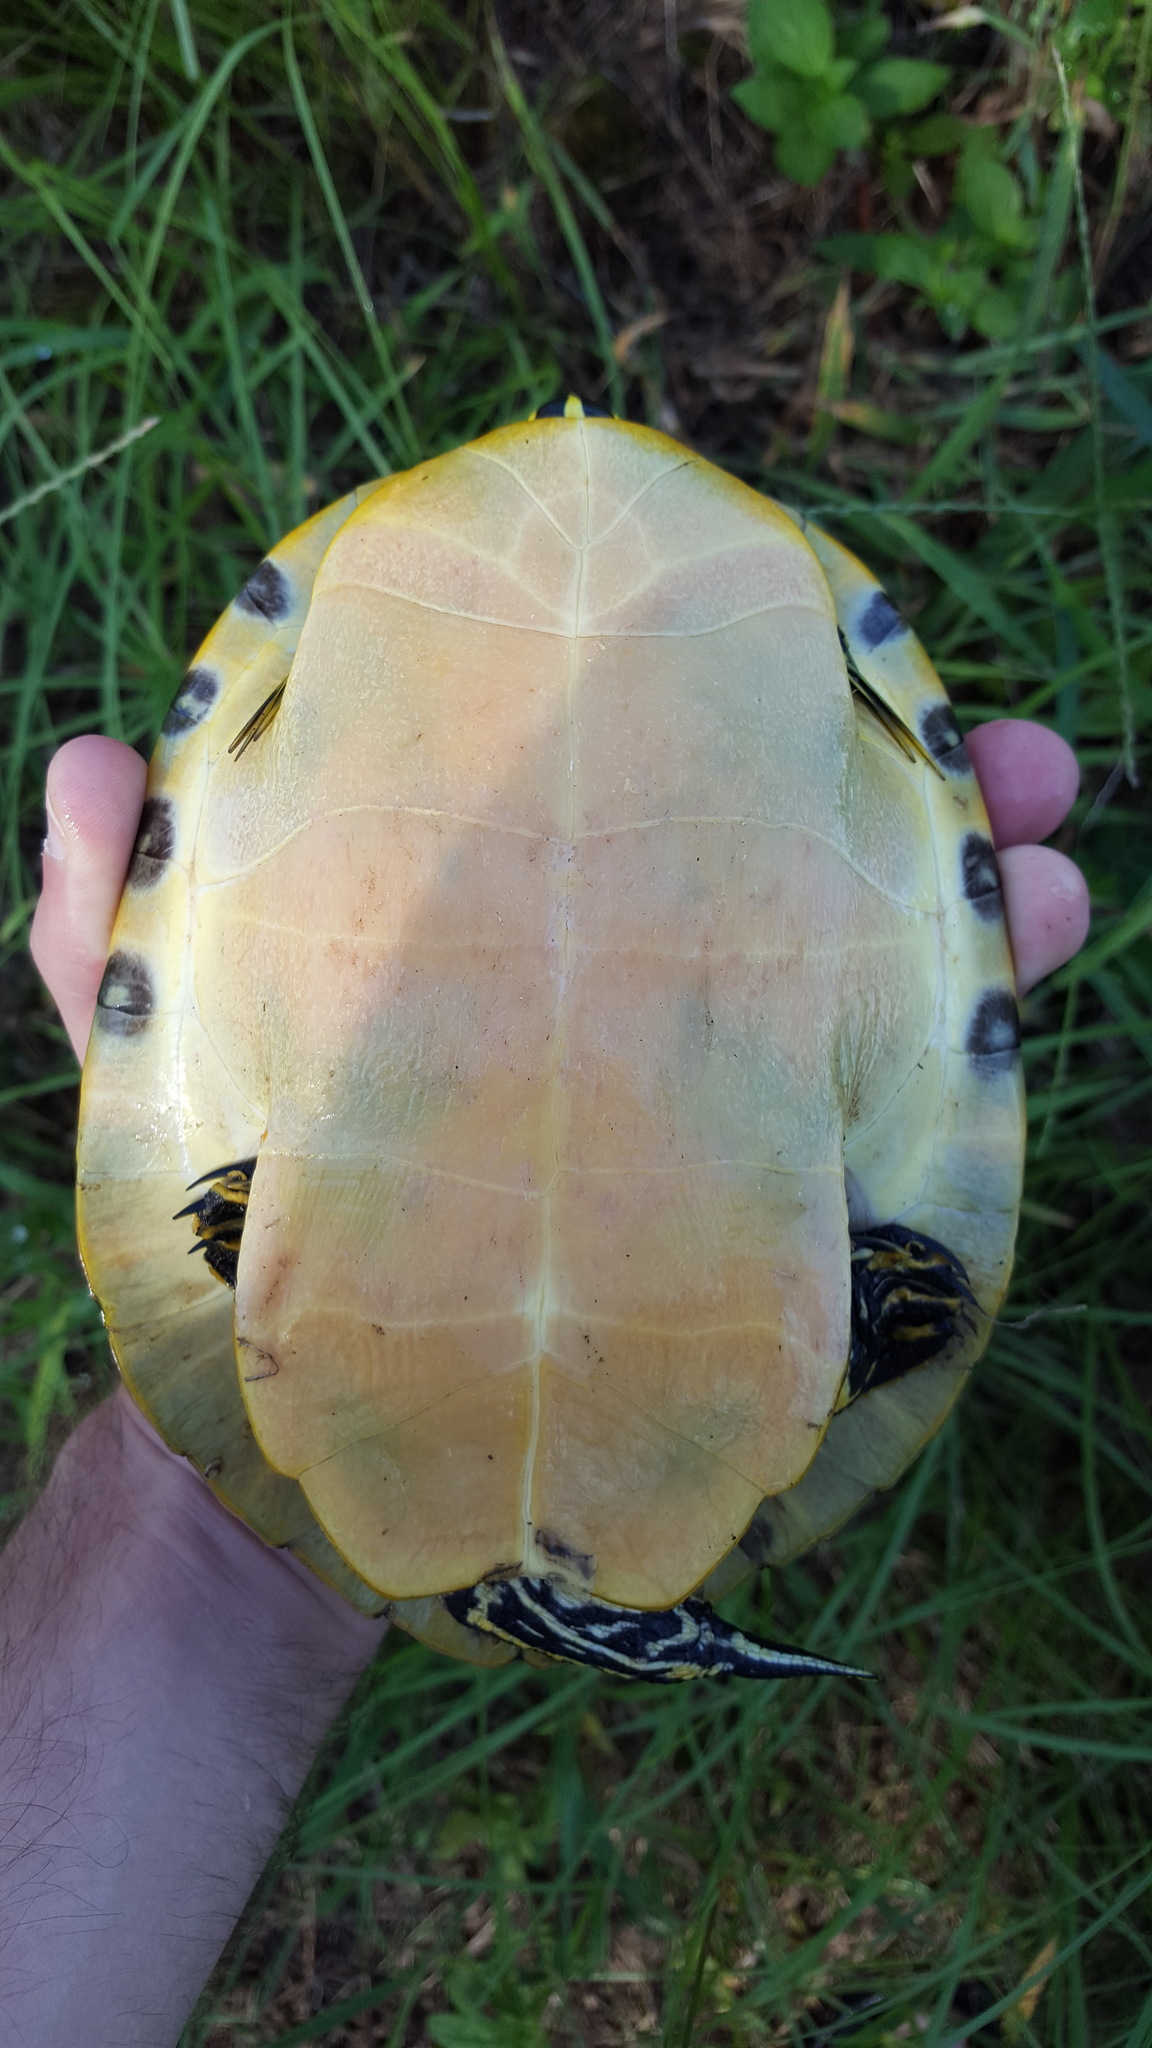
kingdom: Animalia
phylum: Chordata
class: Testudines
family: Emydidae
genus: Pseudemys
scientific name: Pseudemys concinna
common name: Eastern river cooter
